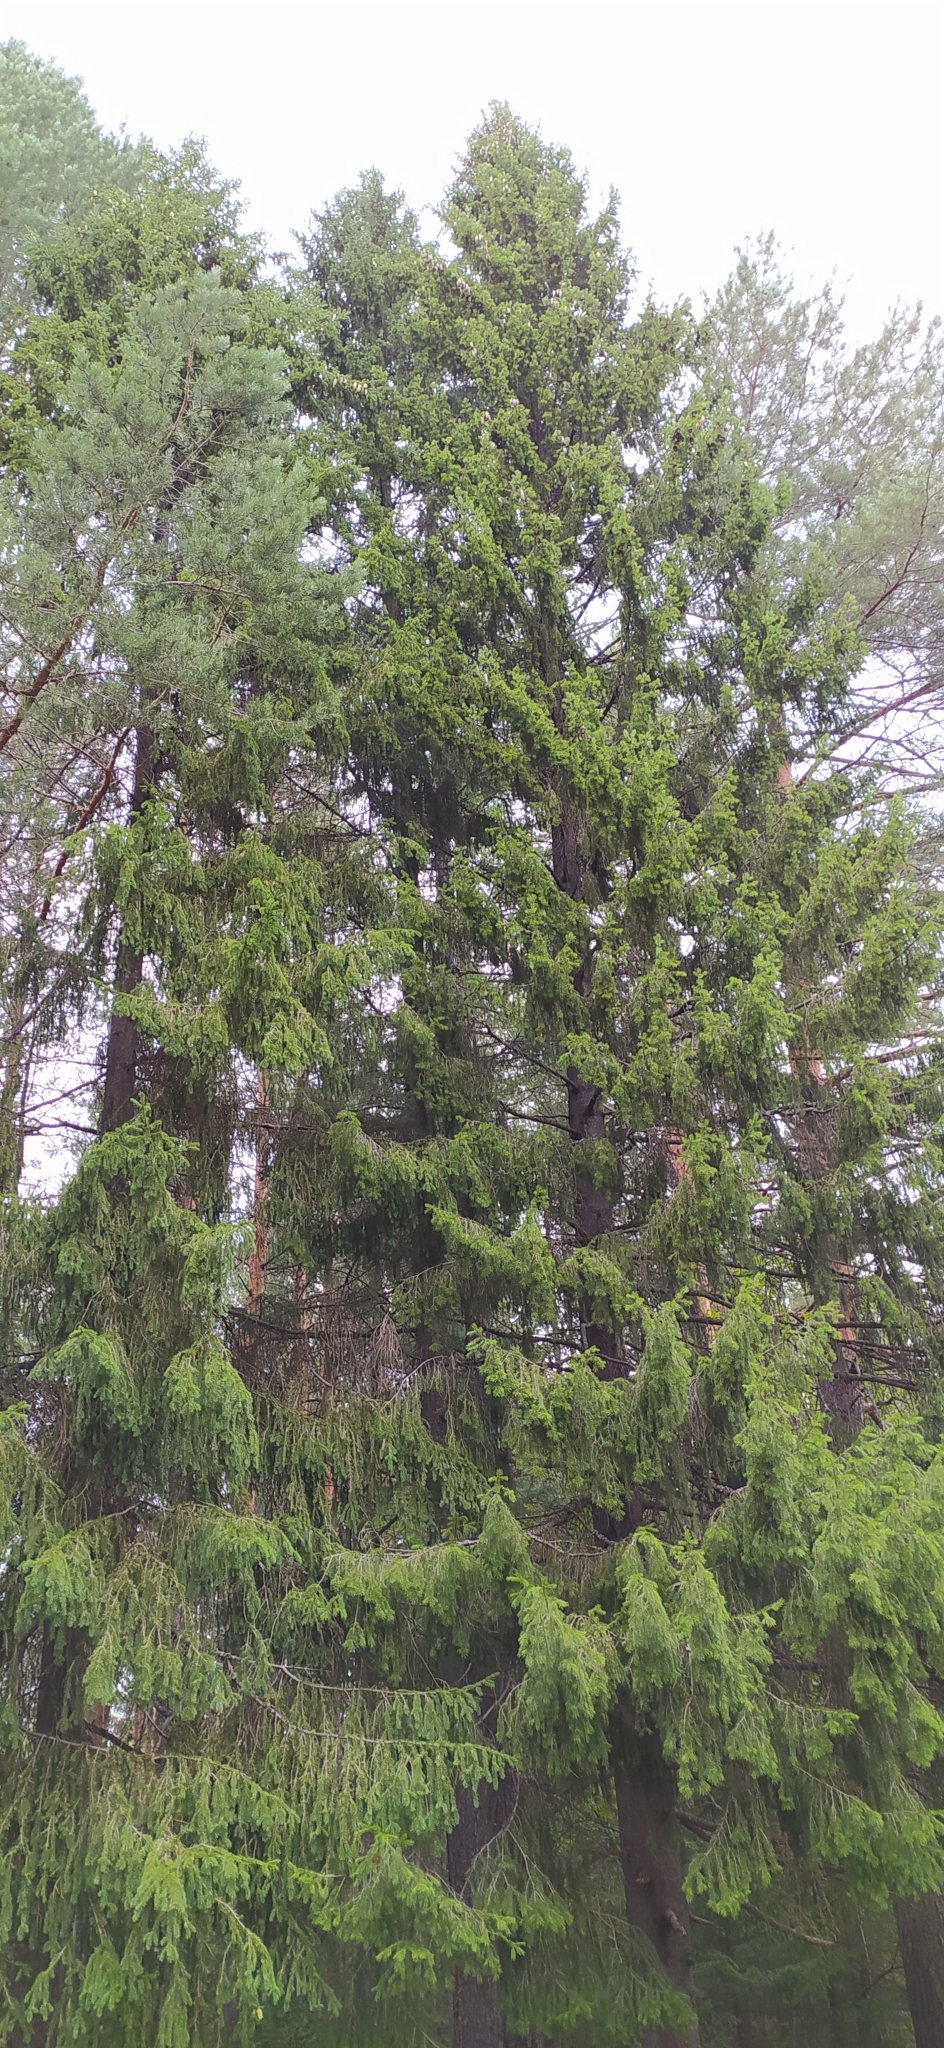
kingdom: Plantae
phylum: Tracheophyta
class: Pinopsida
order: Pinales
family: Pinaceae
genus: Picea
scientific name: Picea obovata
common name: Siberian spruce
